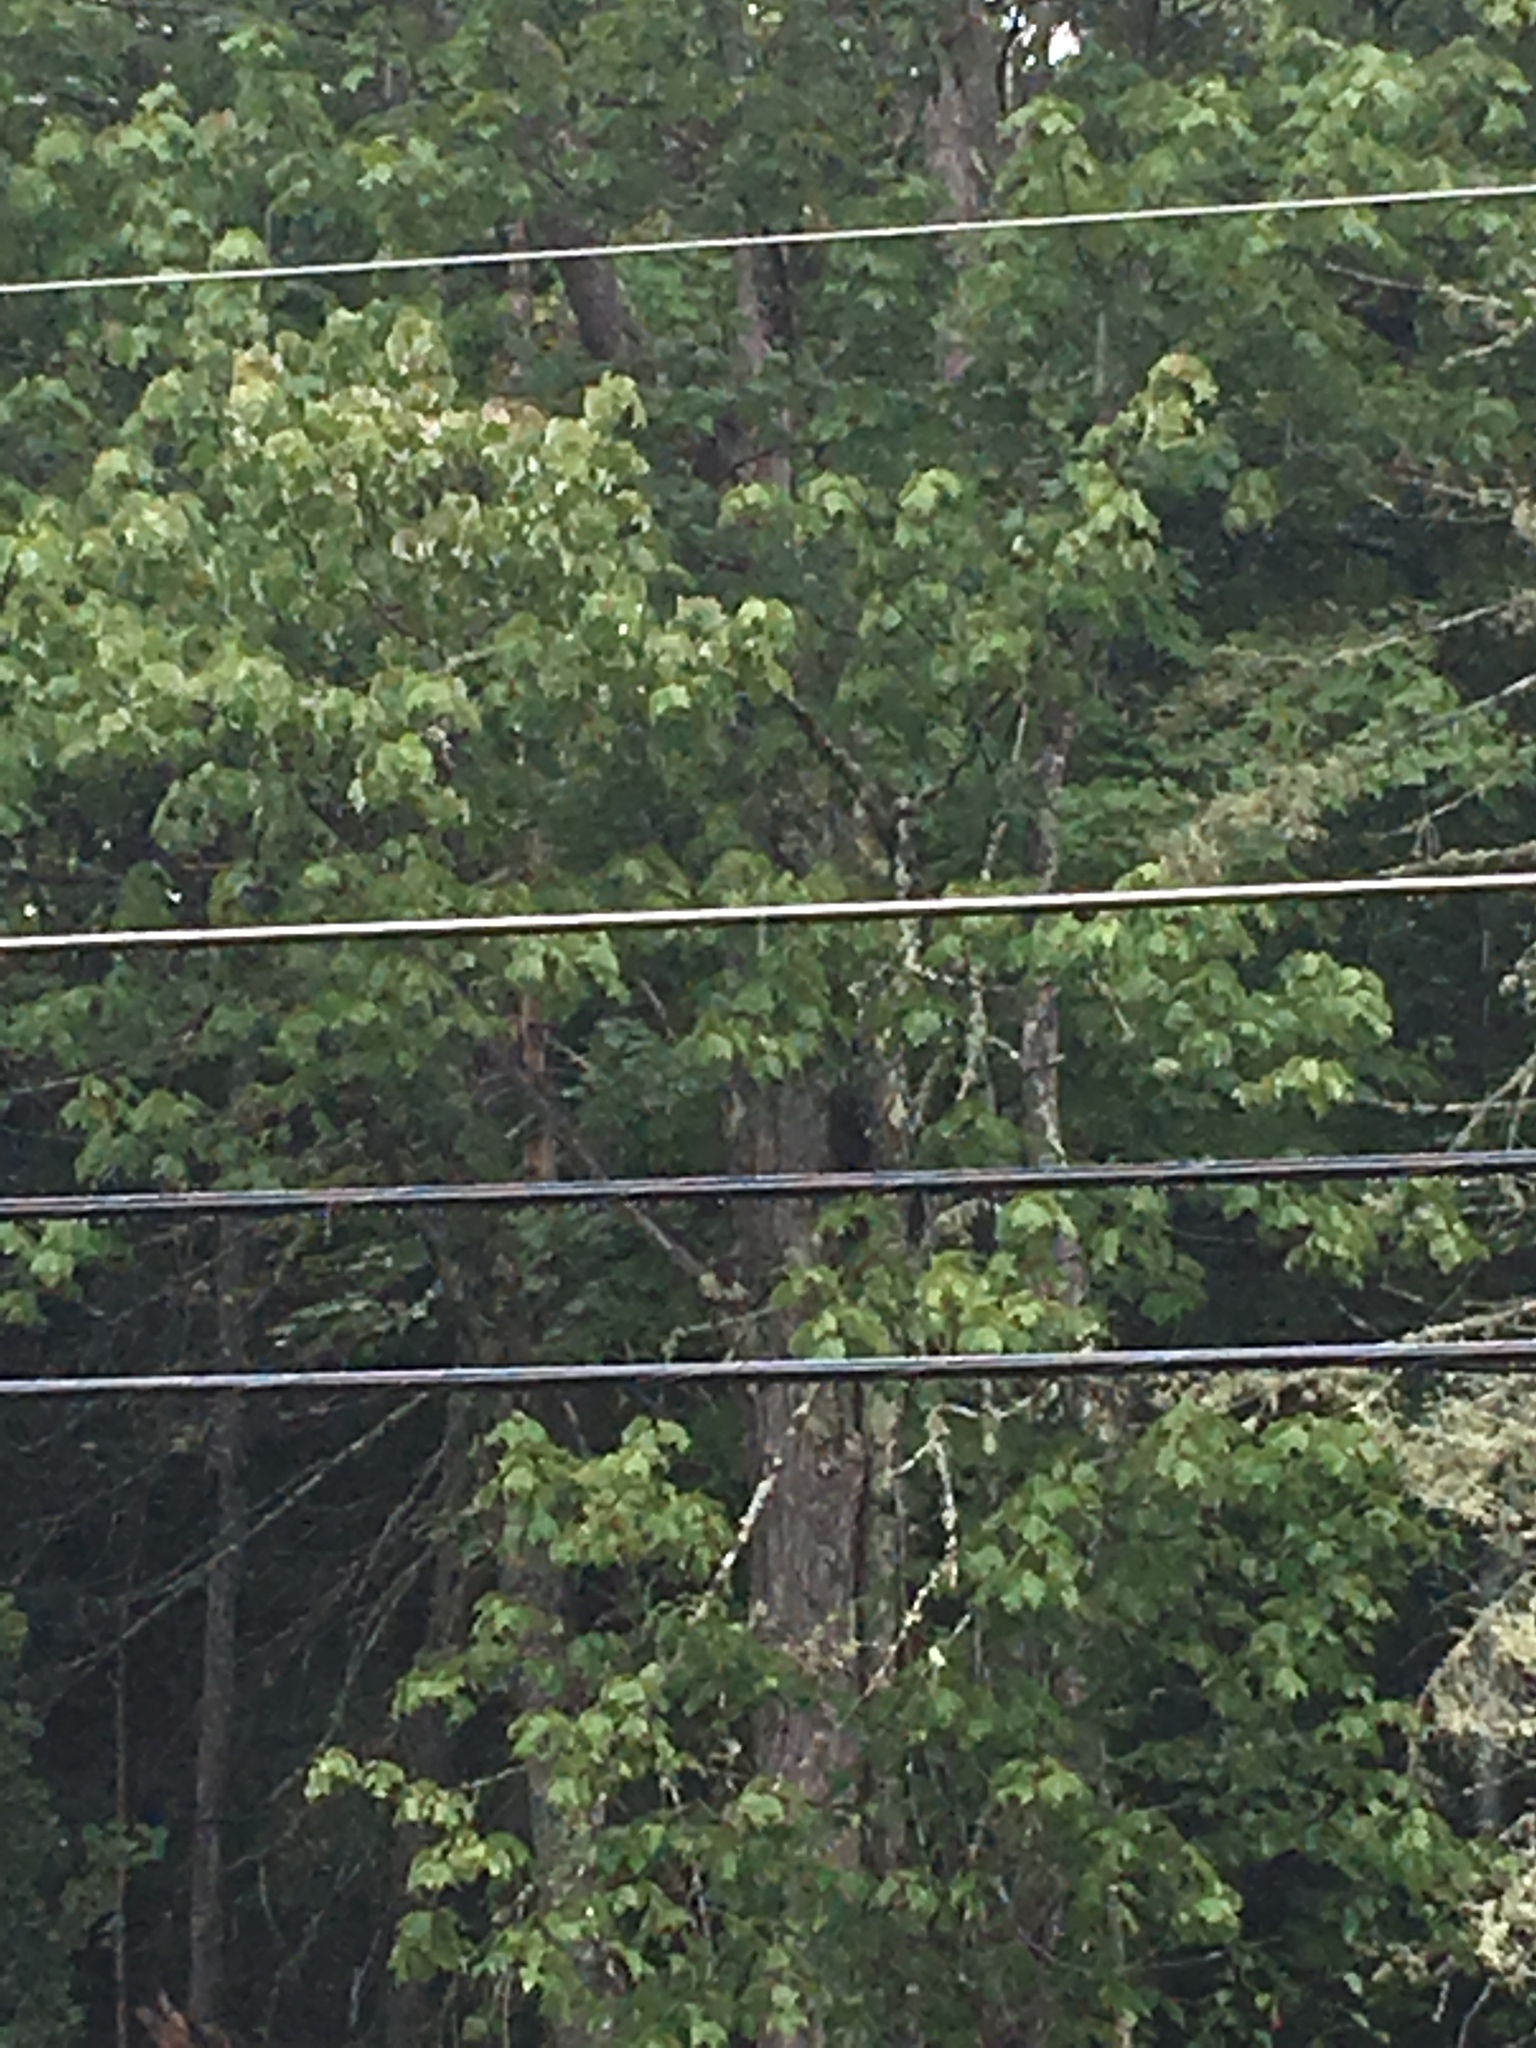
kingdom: Plantae
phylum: Tracheophyta
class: Magnoliopsida
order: Sapindales
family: Sapindaceae
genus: Acer
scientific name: Acer rubrum
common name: Red maple
